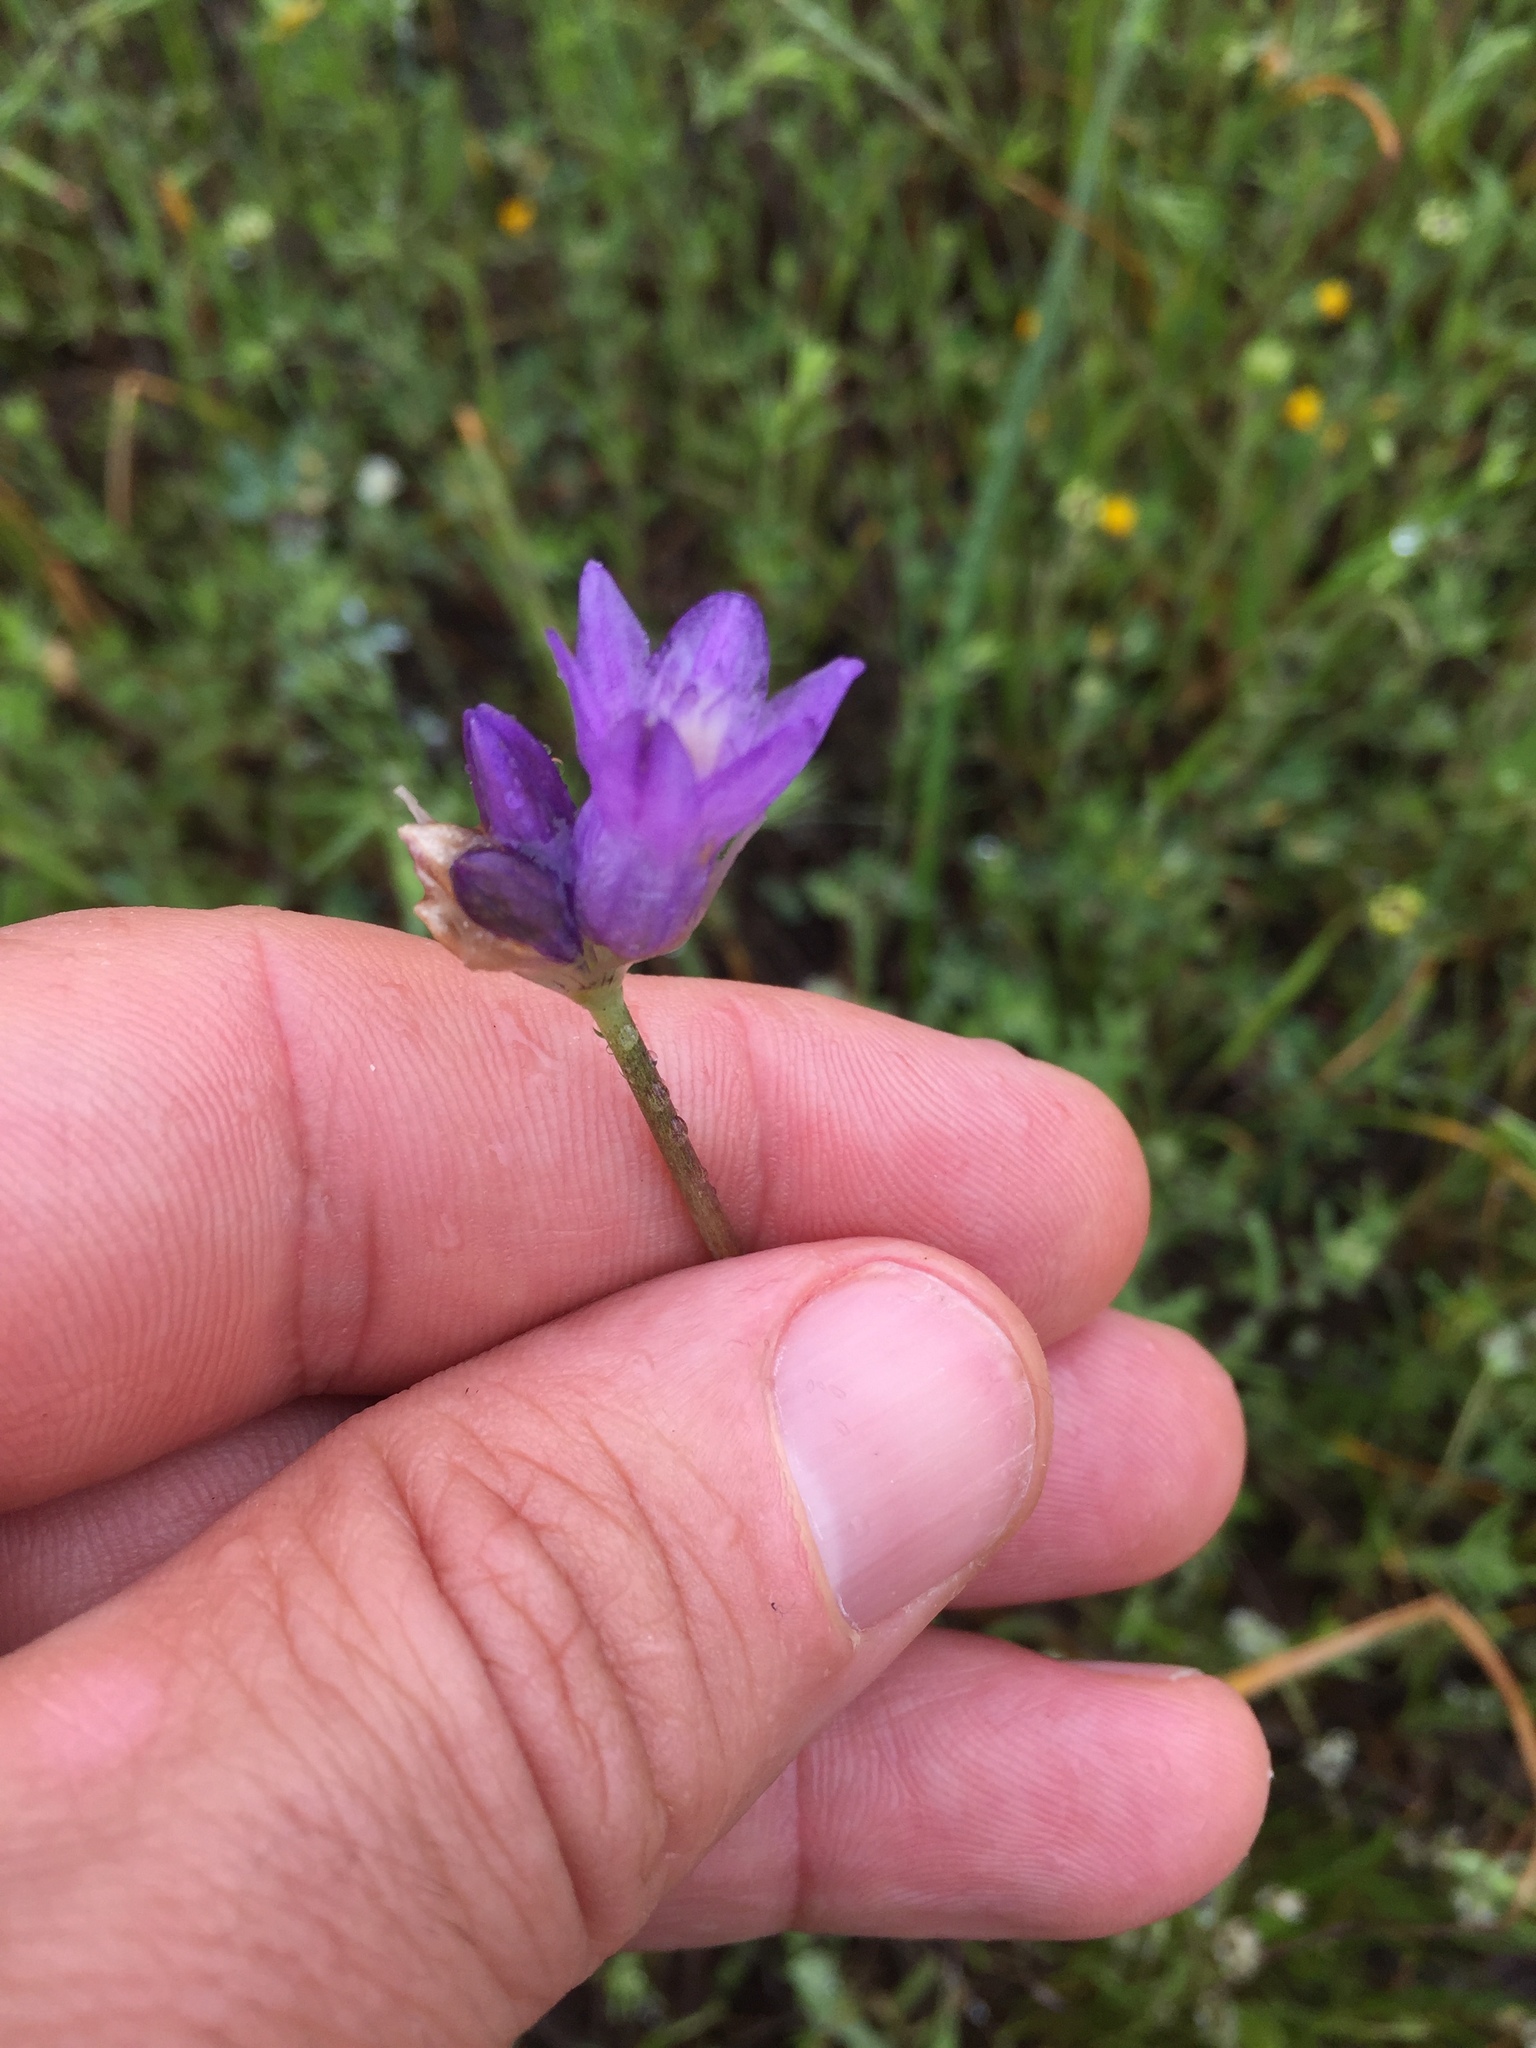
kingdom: Plantae
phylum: Tracheophyta
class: Liliopsida
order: Asparagales
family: Asparagaceae
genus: Dipterostemon
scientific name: Dipterostemon capitatus
